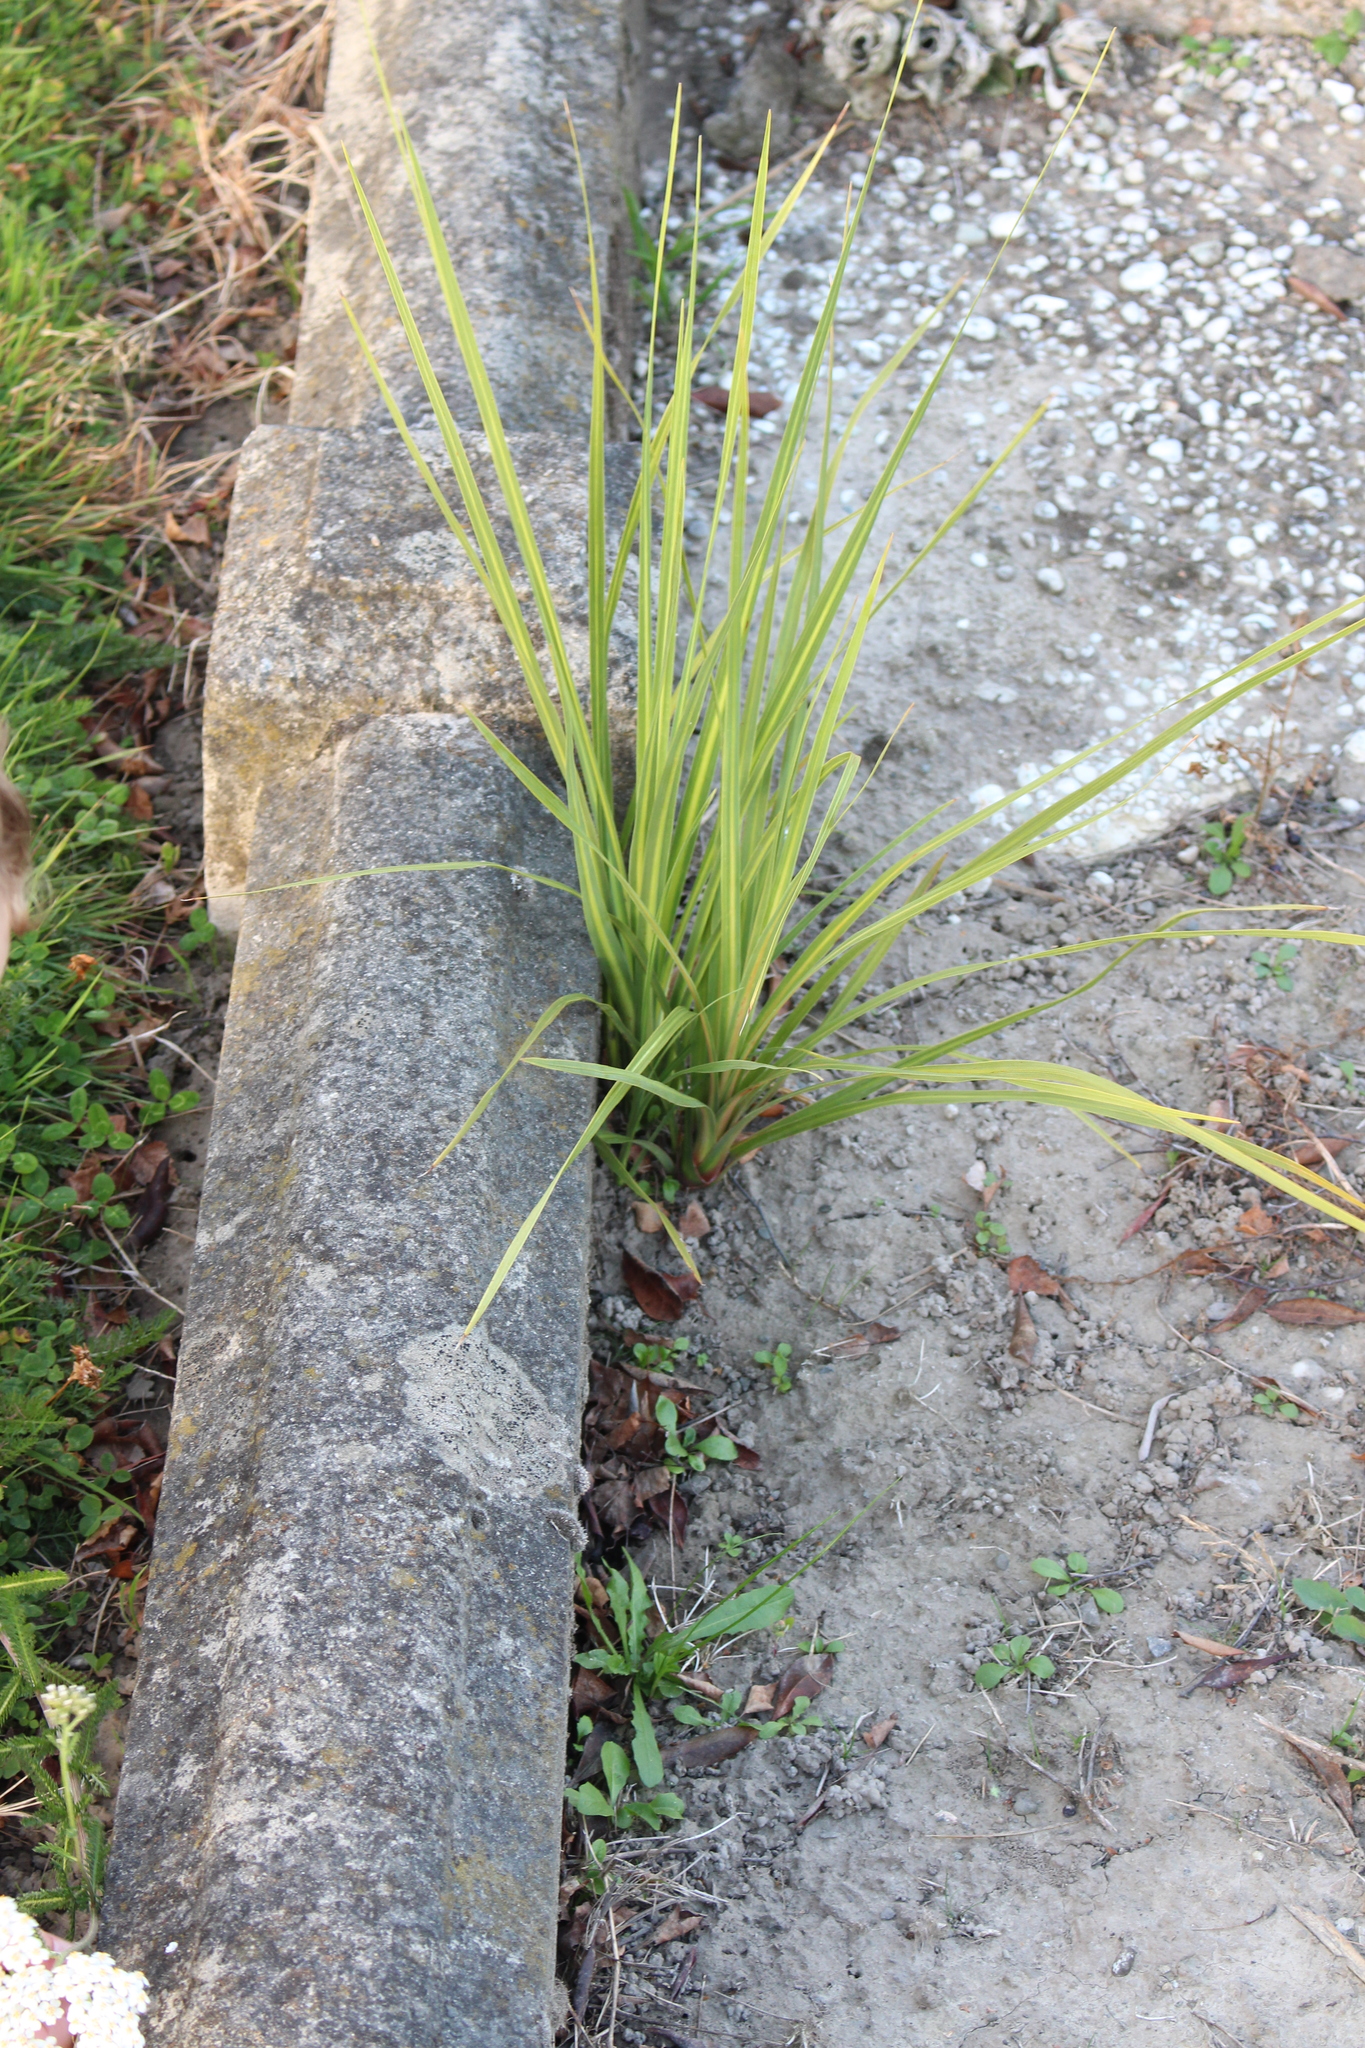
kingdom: Plantae
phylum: Tracheophyta
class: Liliopsida
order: Asparagales
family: Asparagaceae
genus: Cordyline
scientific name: Cordyline australis
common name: Cabbage-palm
